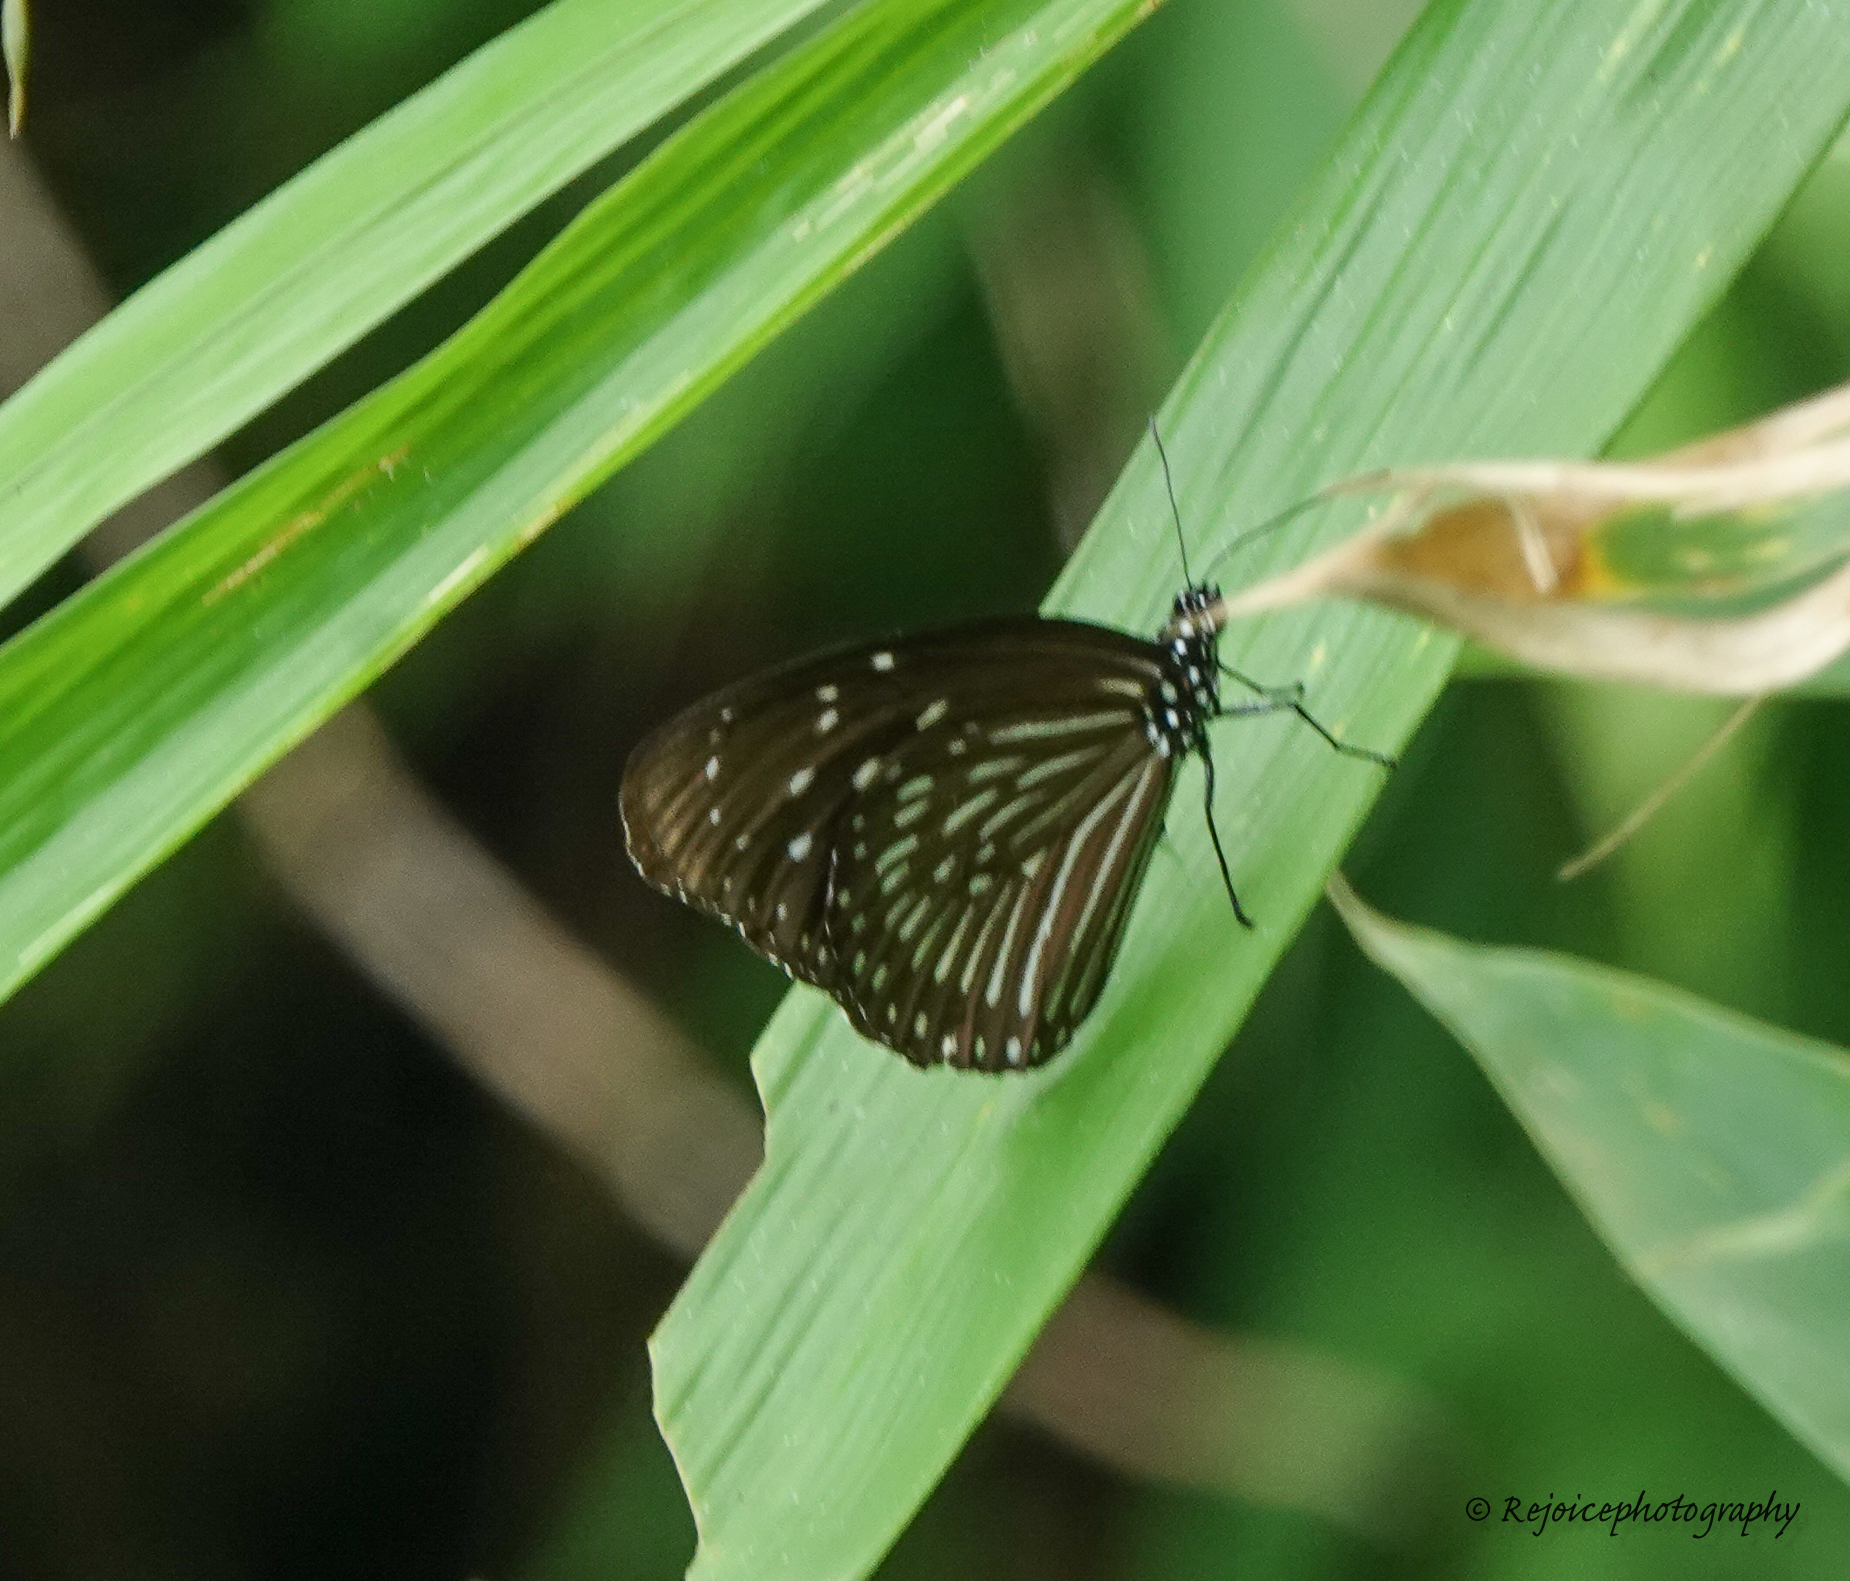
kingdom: Animalia
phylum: Arthropoda
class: Insecta
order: Lepidoptera
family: Nymphalidae
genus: Euploea
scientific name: Euploea mulciber
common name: Striped blue crow butterfly
